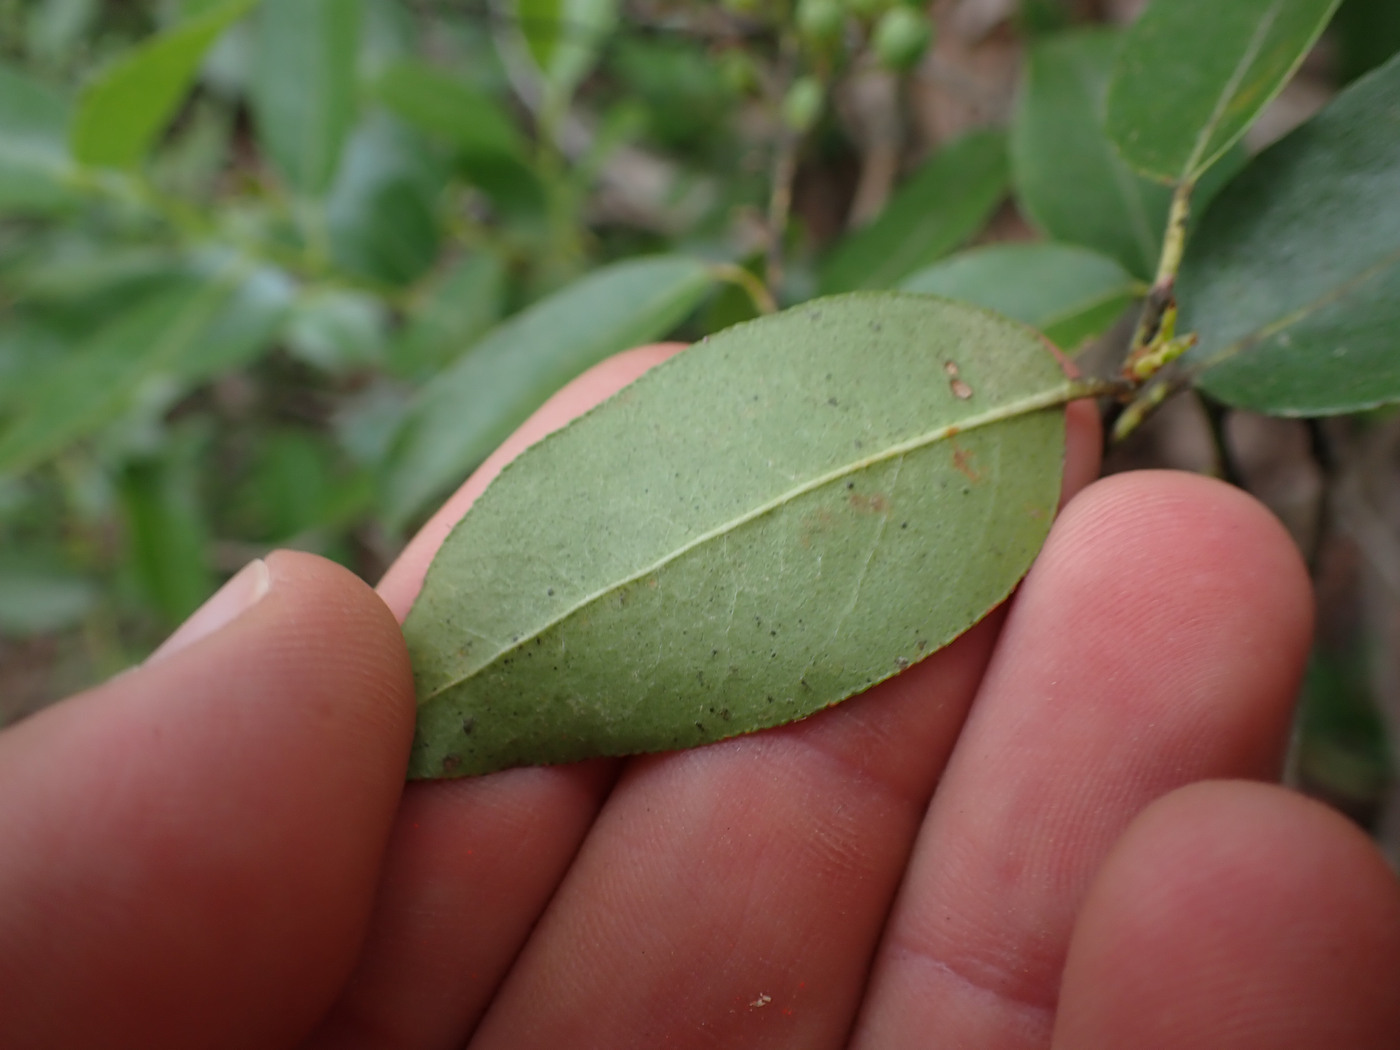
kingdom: Plantae
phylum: Tracheophyta
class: Magnoliopsida
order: Ericales
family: Ericaceae
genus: Pieris
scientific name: Pieris floribunda
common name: Flutterbush
